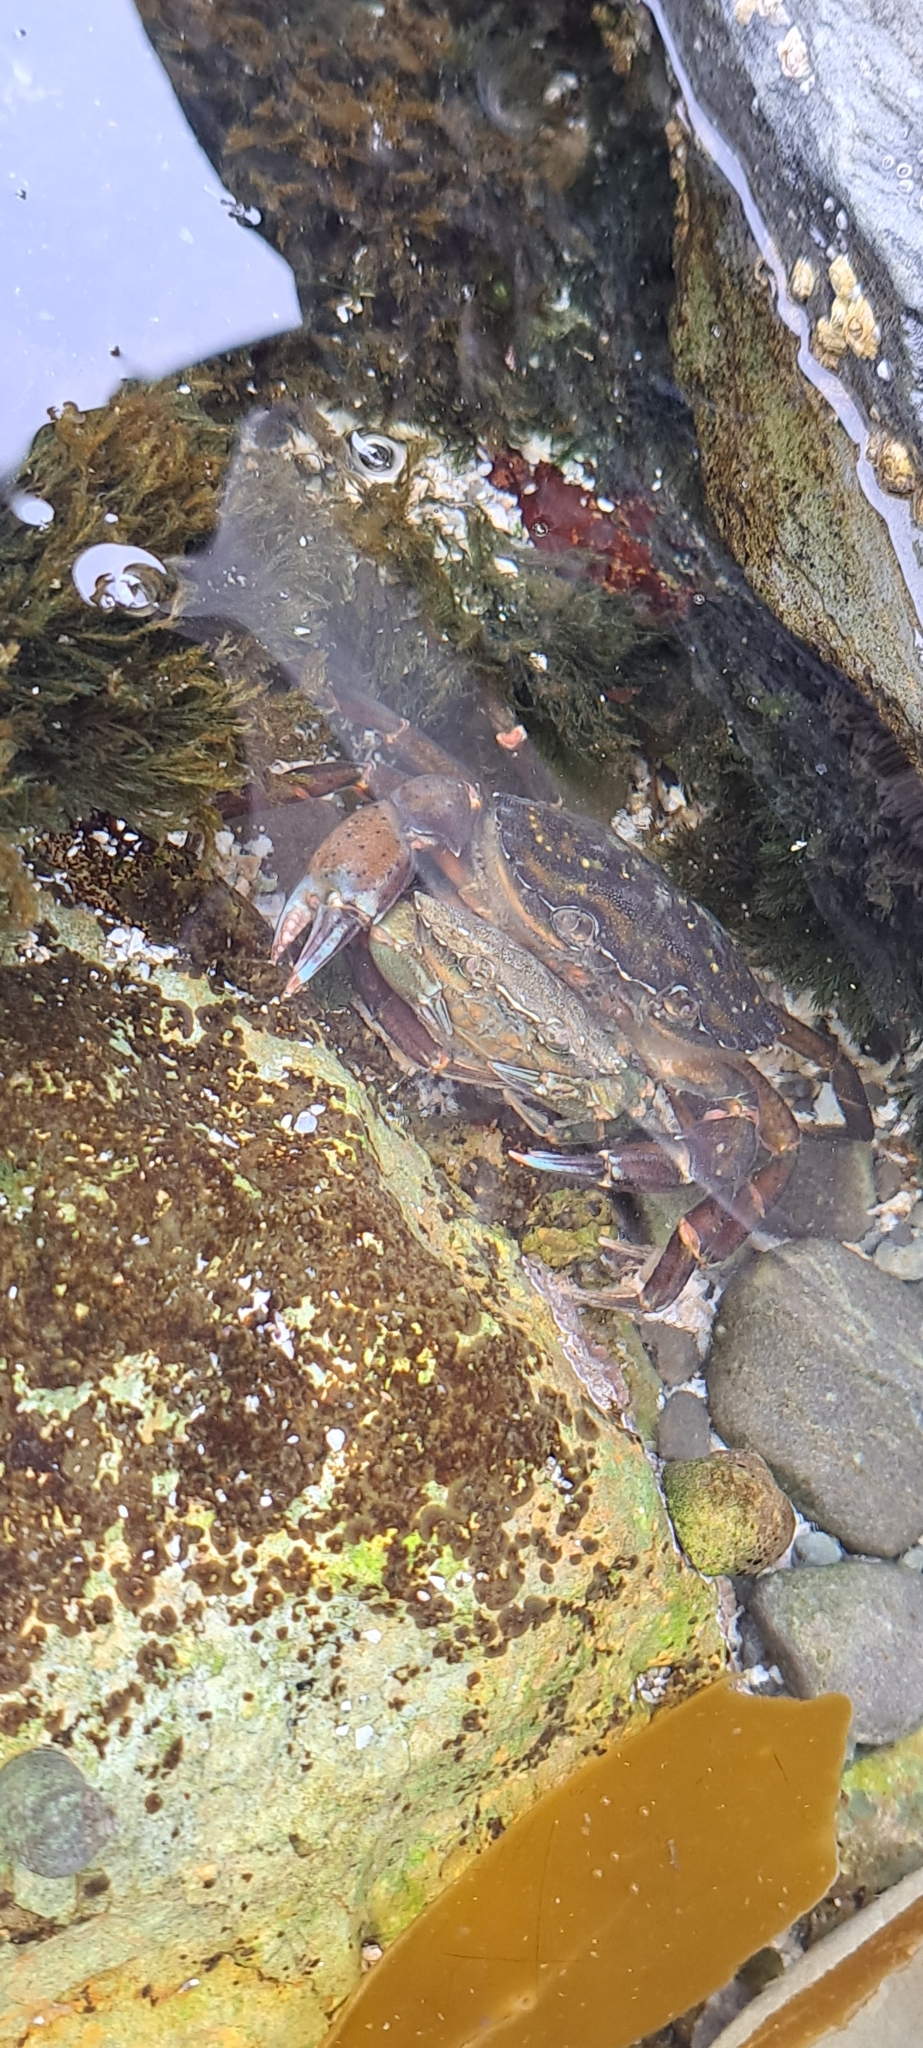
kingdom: Animalia
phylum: Arthropoda
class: Malacostraca
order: Decapoda
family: Carcinidae
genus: Carcinus
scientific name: Carcinus maenas
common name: European green crab
